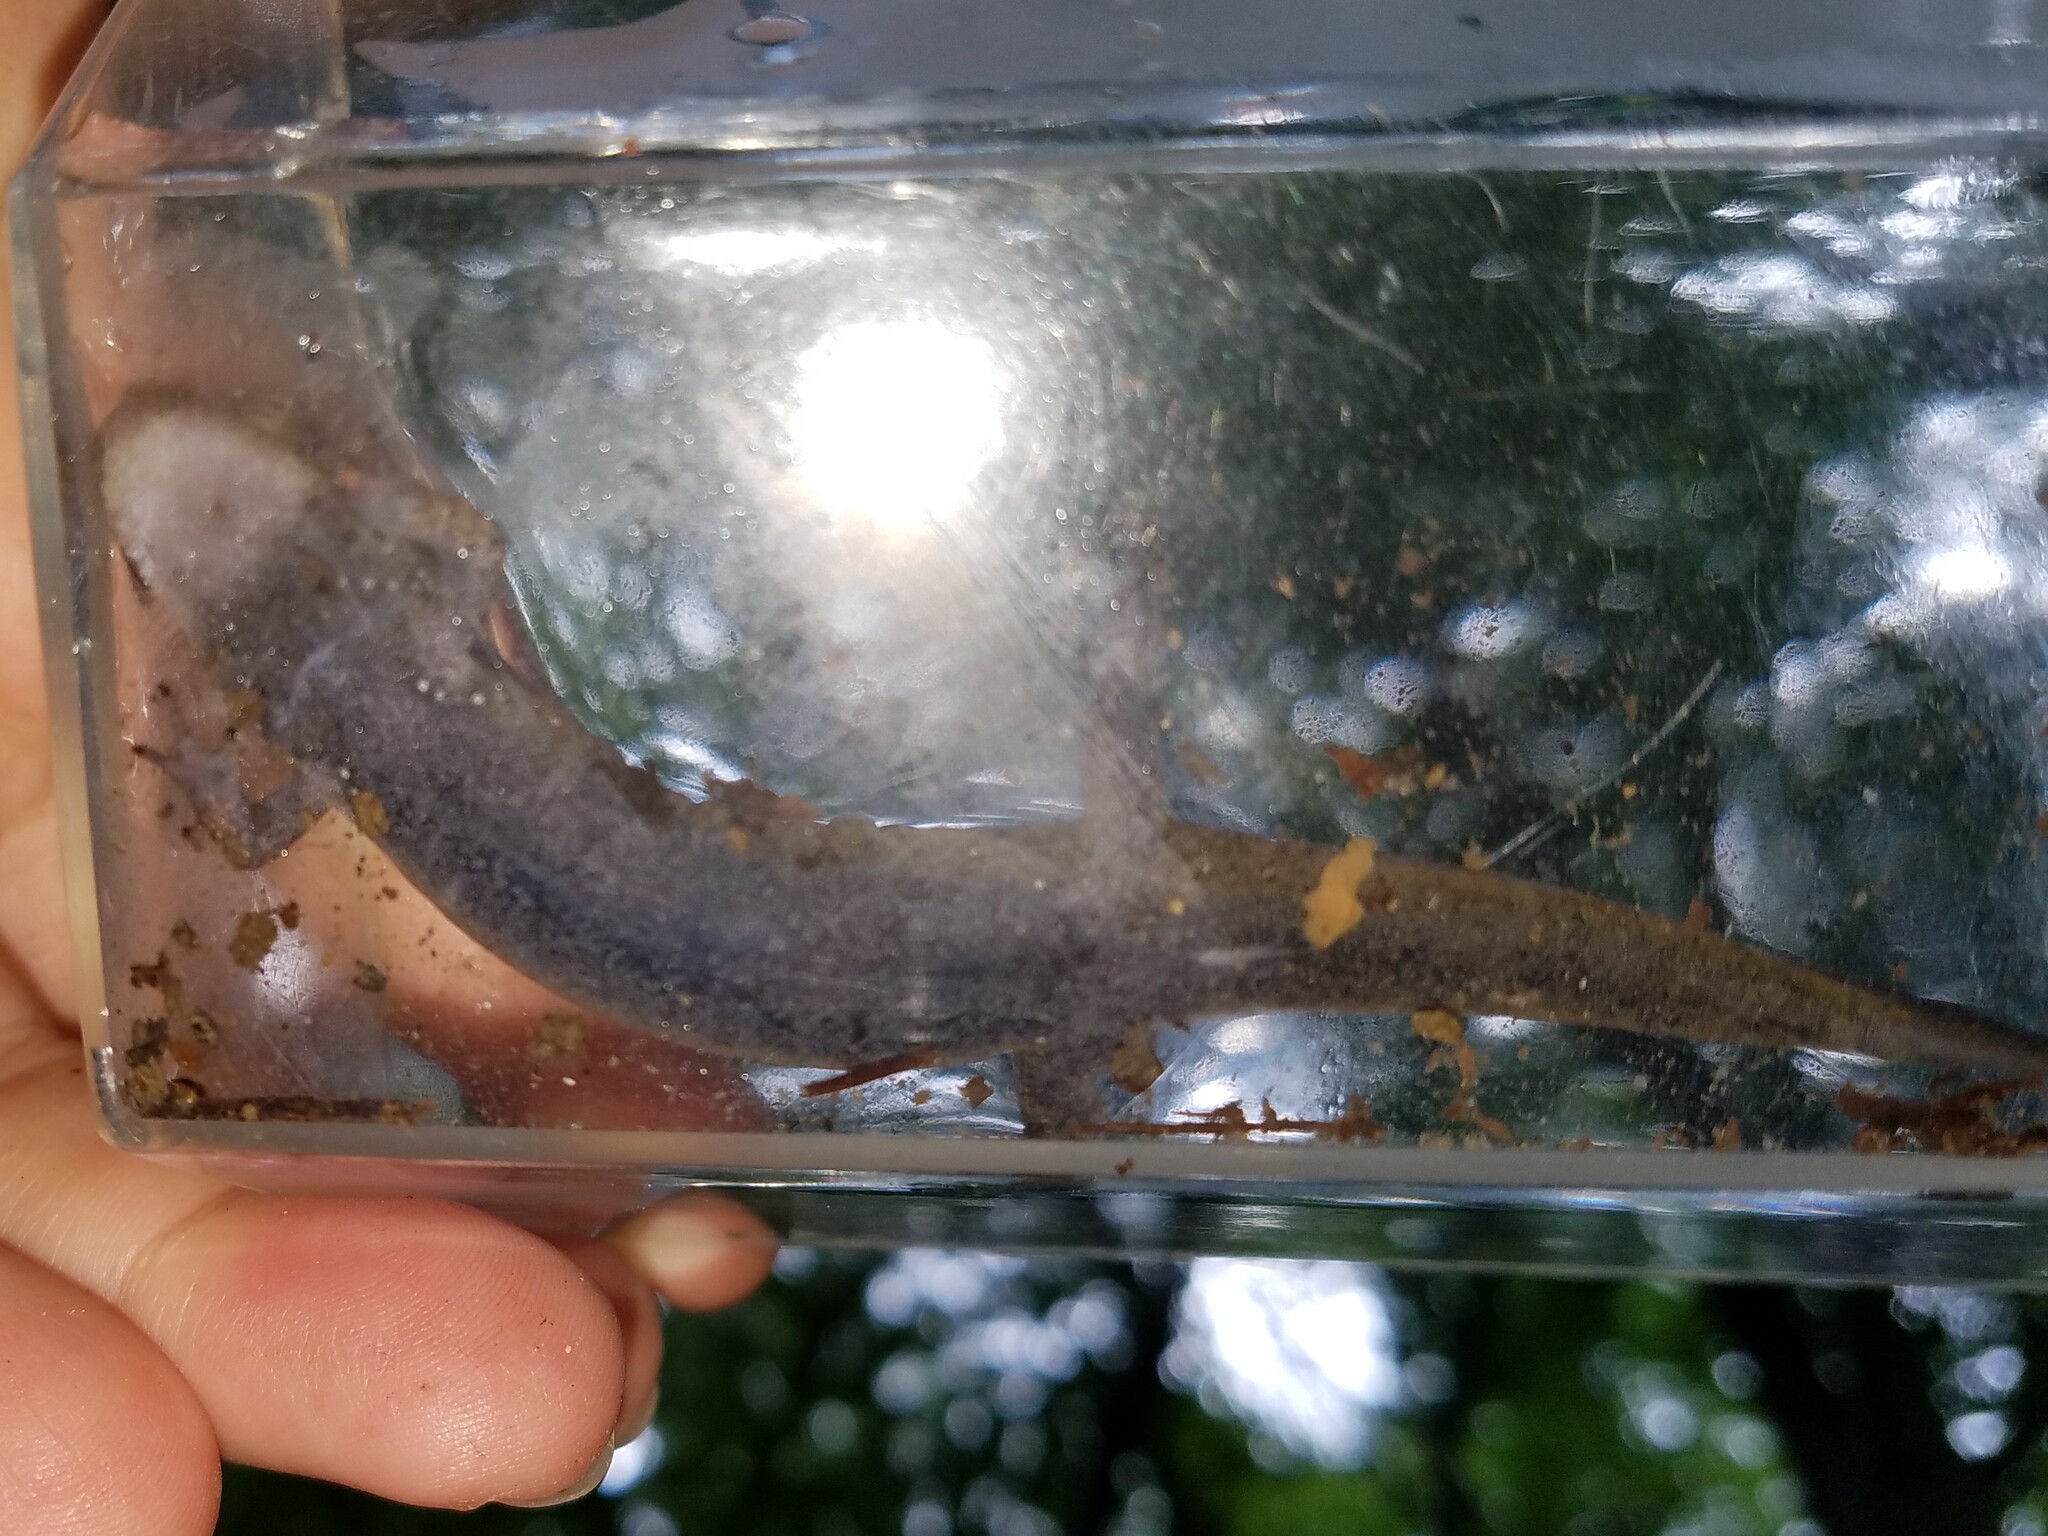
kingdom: Animalia
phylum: Chordata
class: Amphibia
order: Caudata
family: Plethodontidae
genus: Desmognathus
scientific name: Desmognathus
